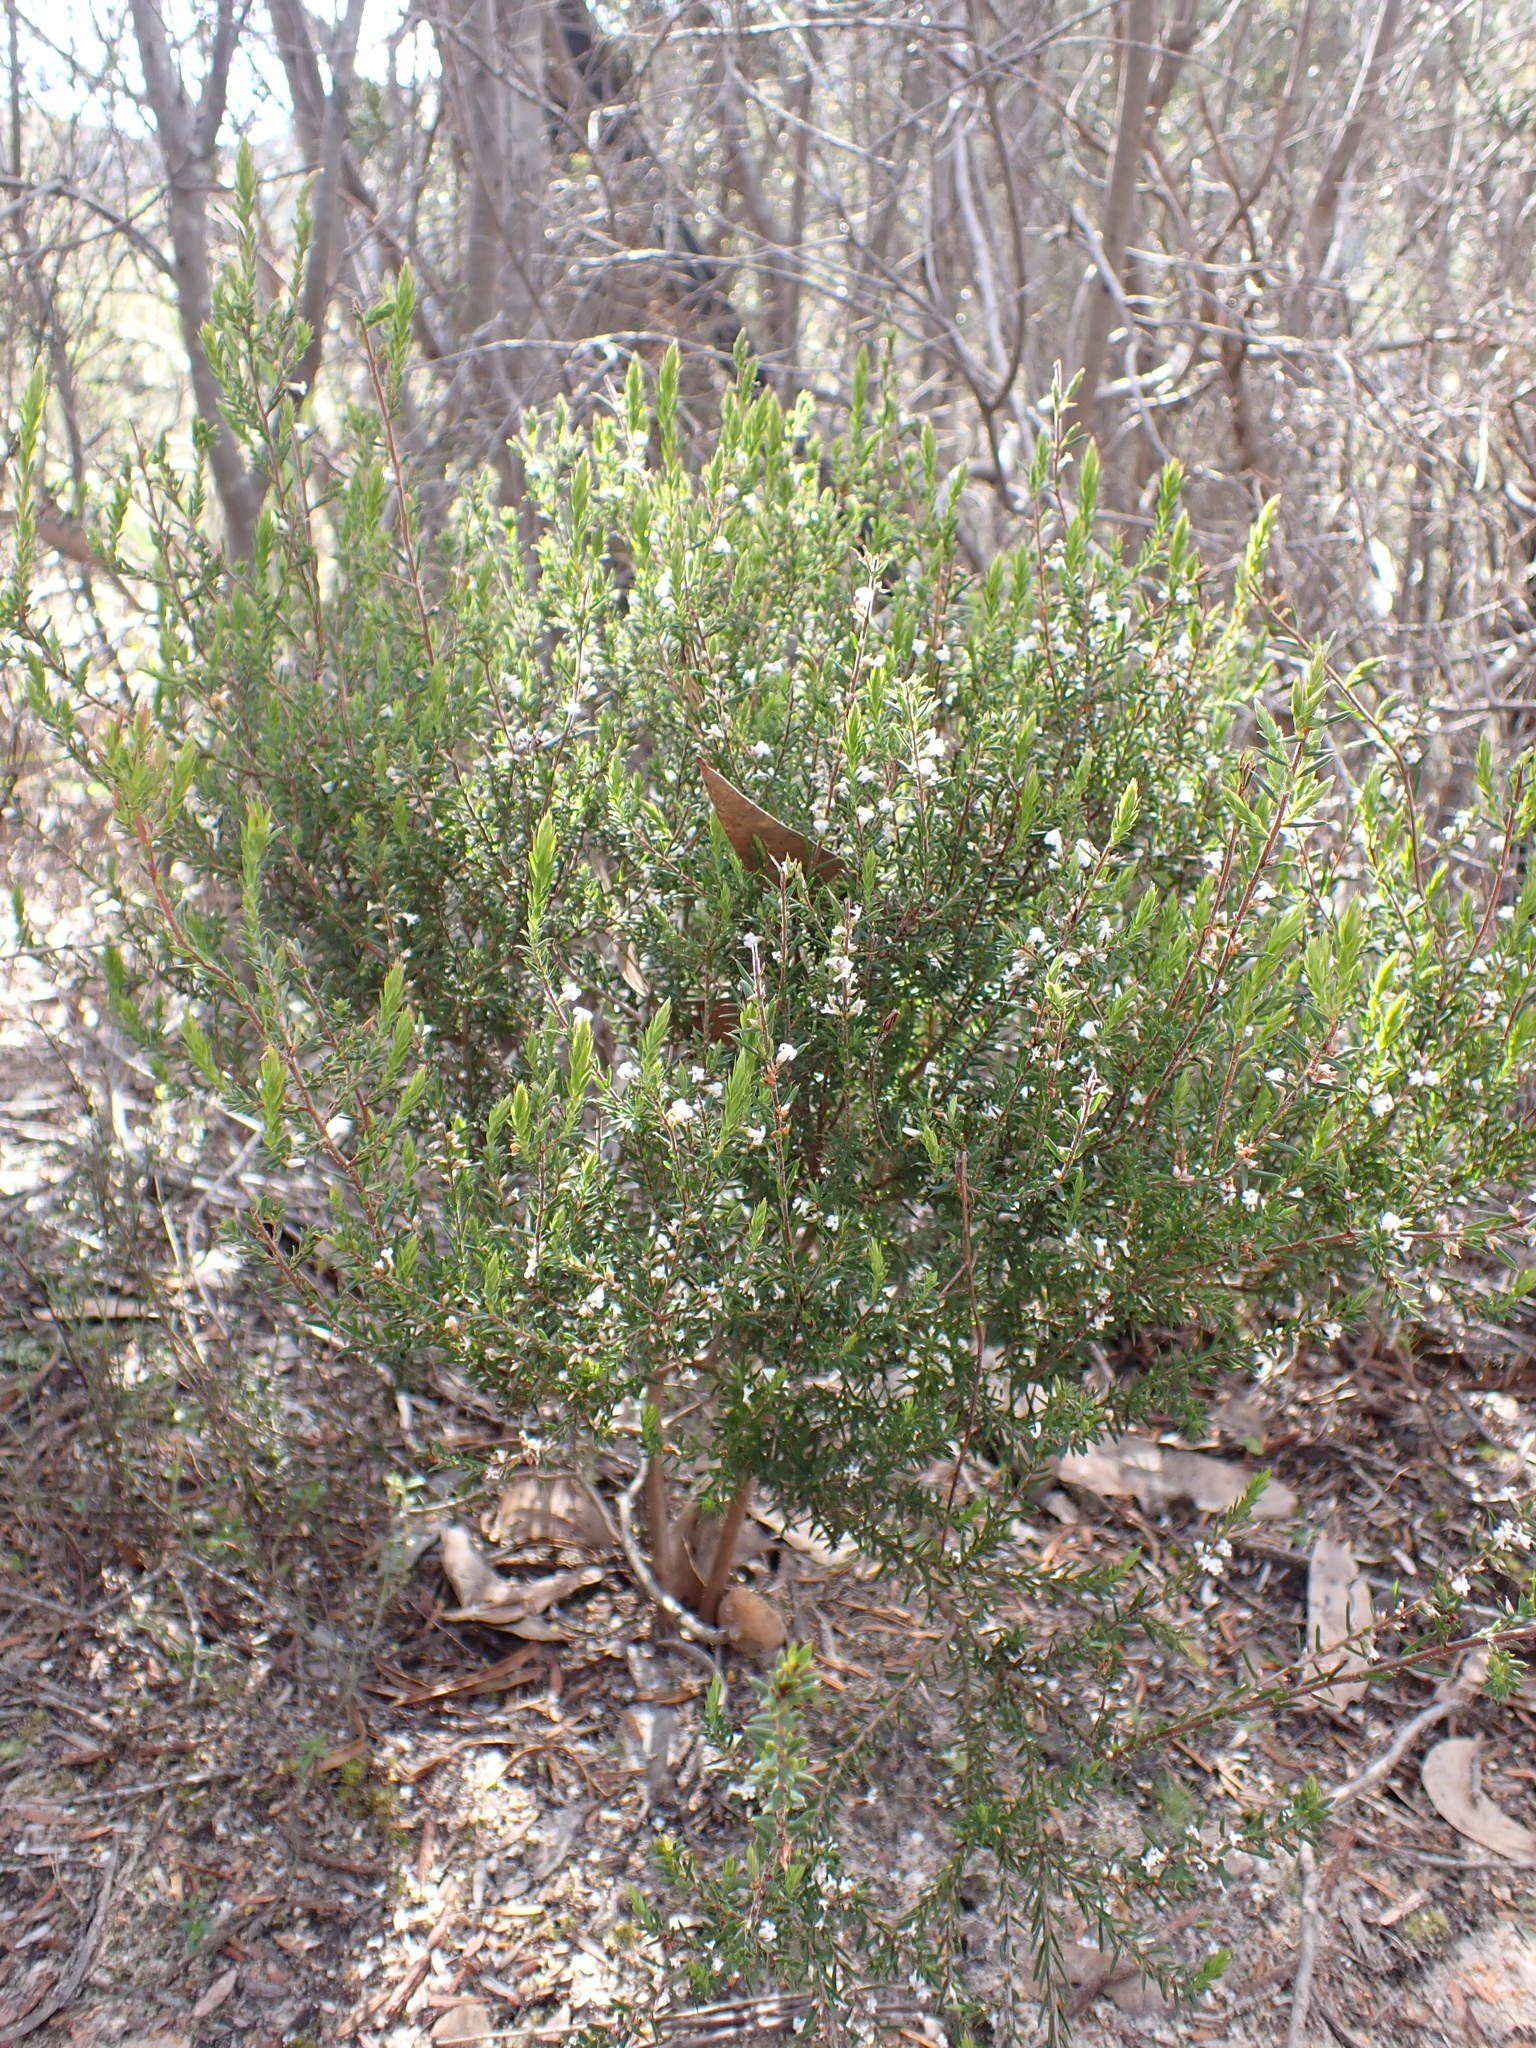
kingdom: Plantae
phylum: Tracheophyta
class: Magnoliopsida
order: Ericales
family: Ericaceae
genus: Styphelia
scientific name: Styphelia ericoides
